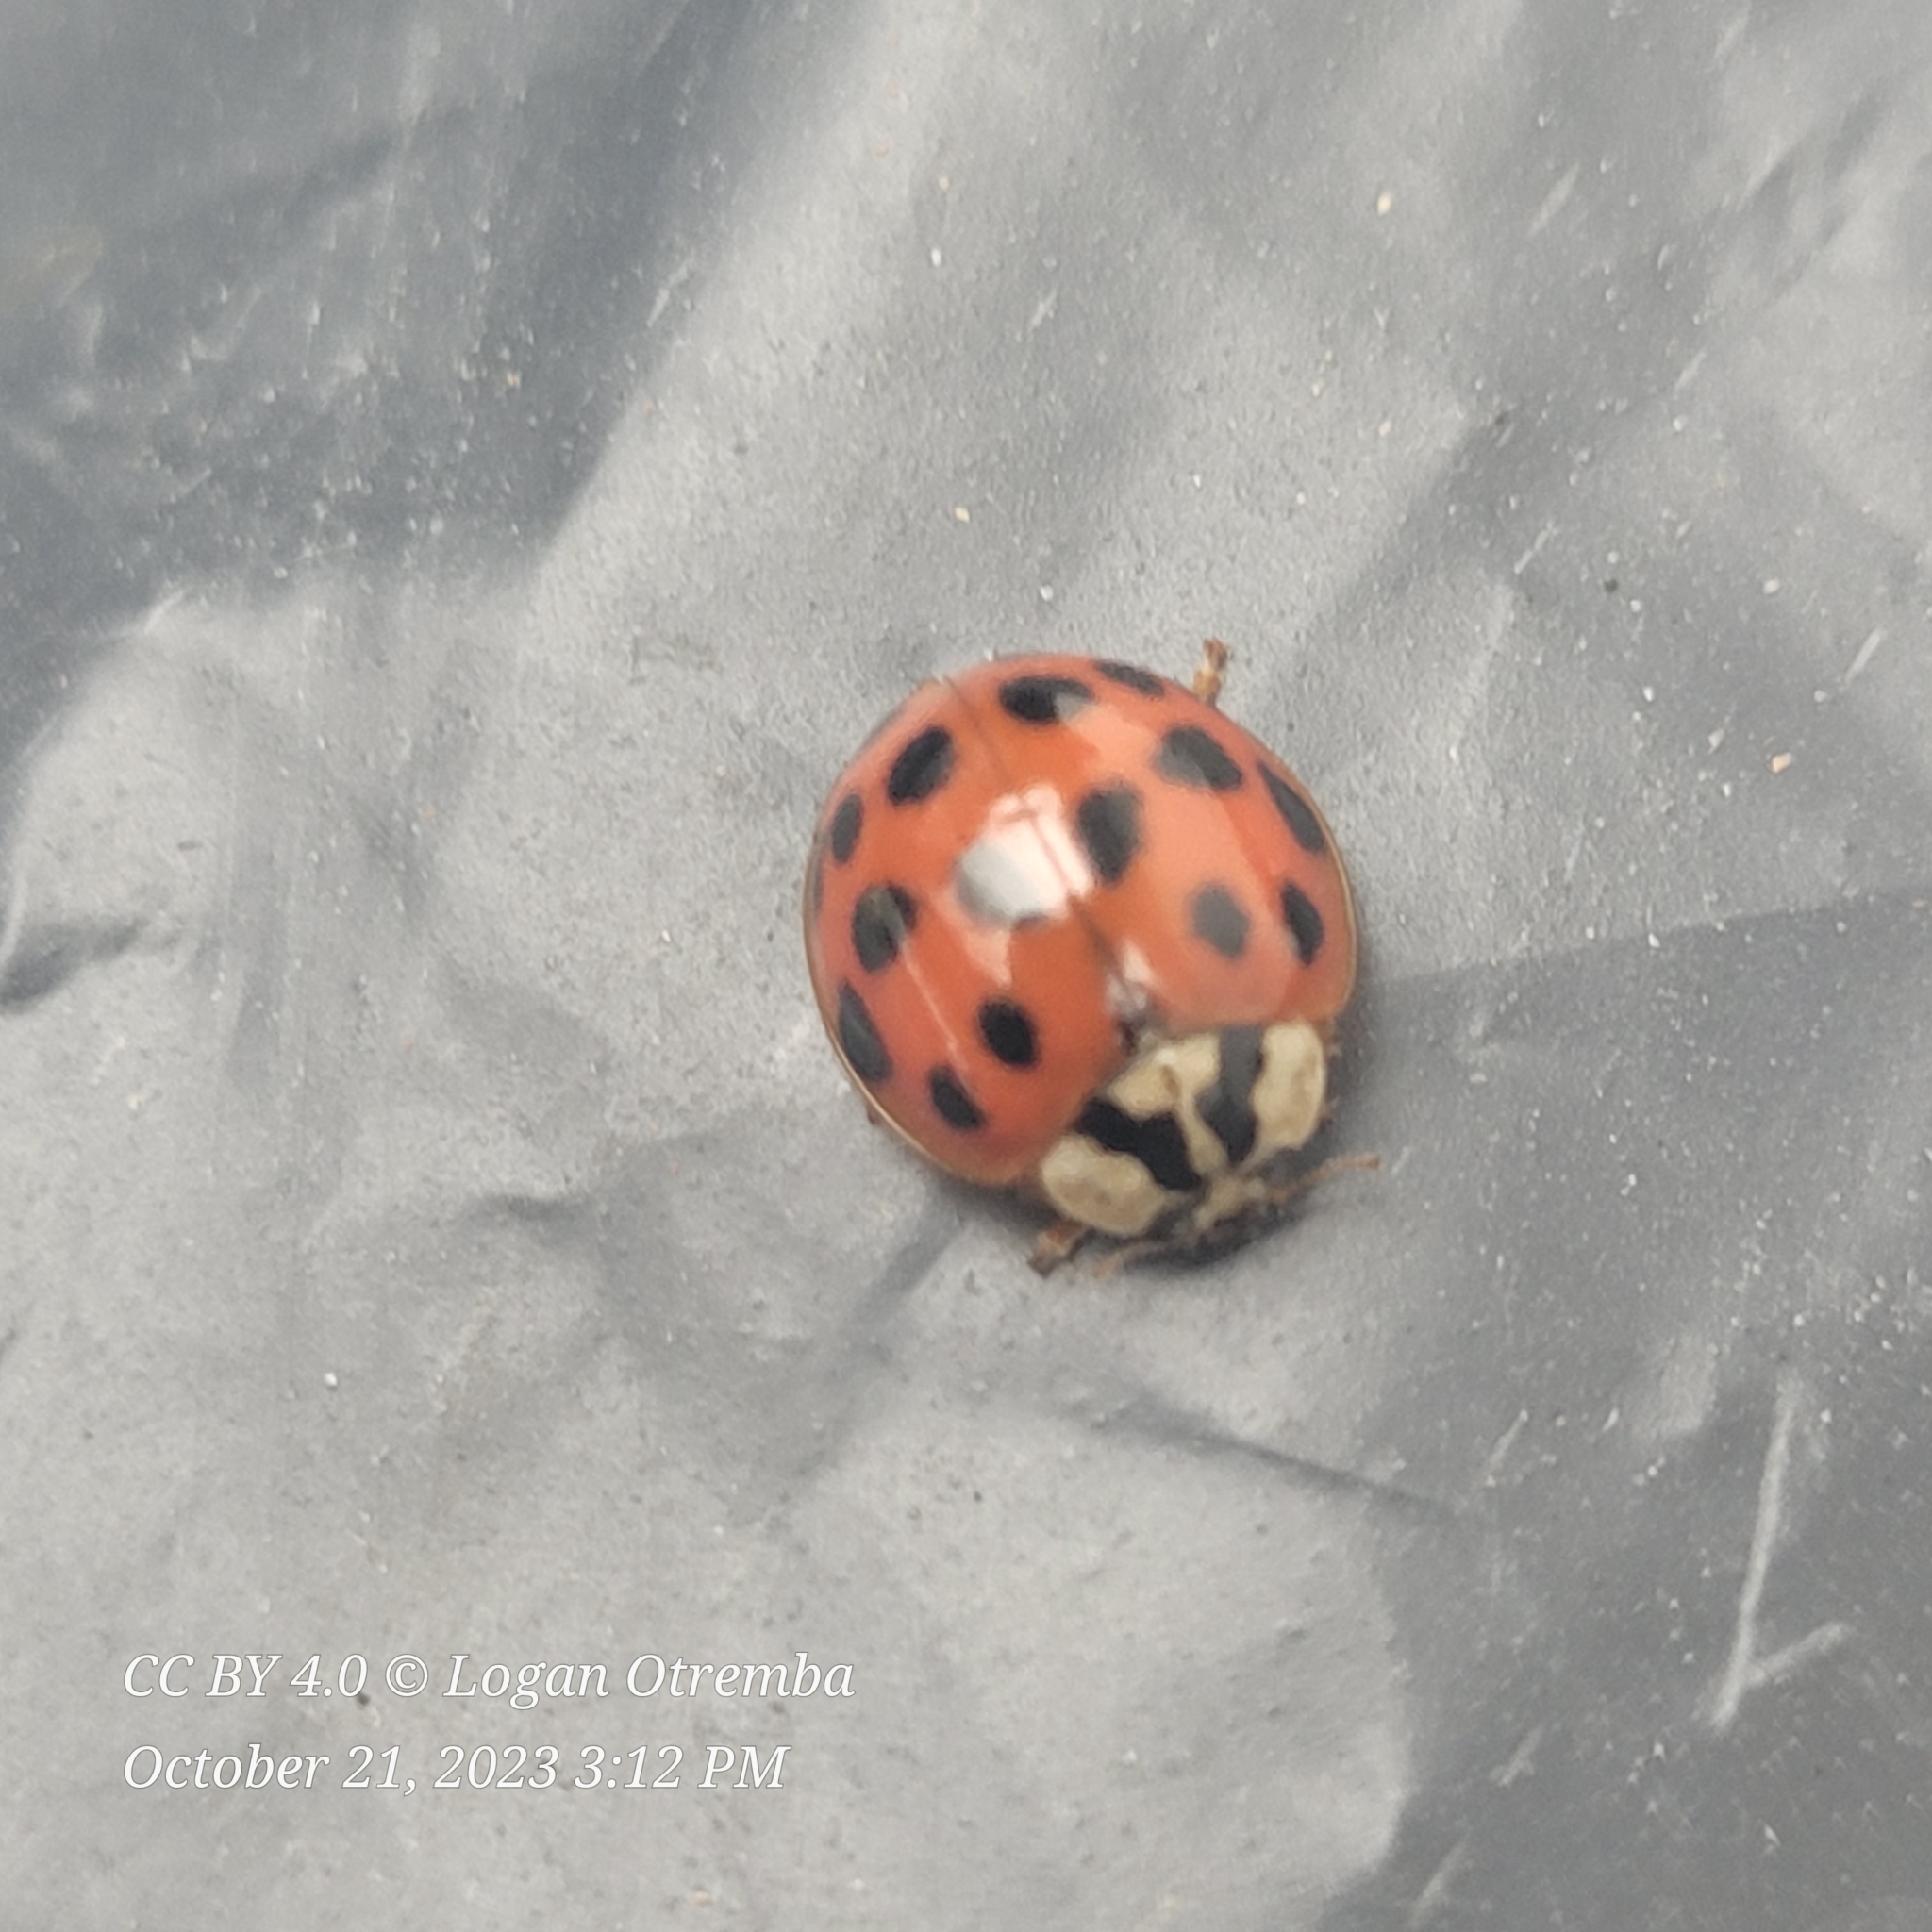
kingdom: Animalia
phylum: Arthropoda
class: Insecta
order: Coleoptera
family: Coccinellidae
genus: Harmonia
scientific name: Harmonia axyridis
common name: Harlequin ladybird
